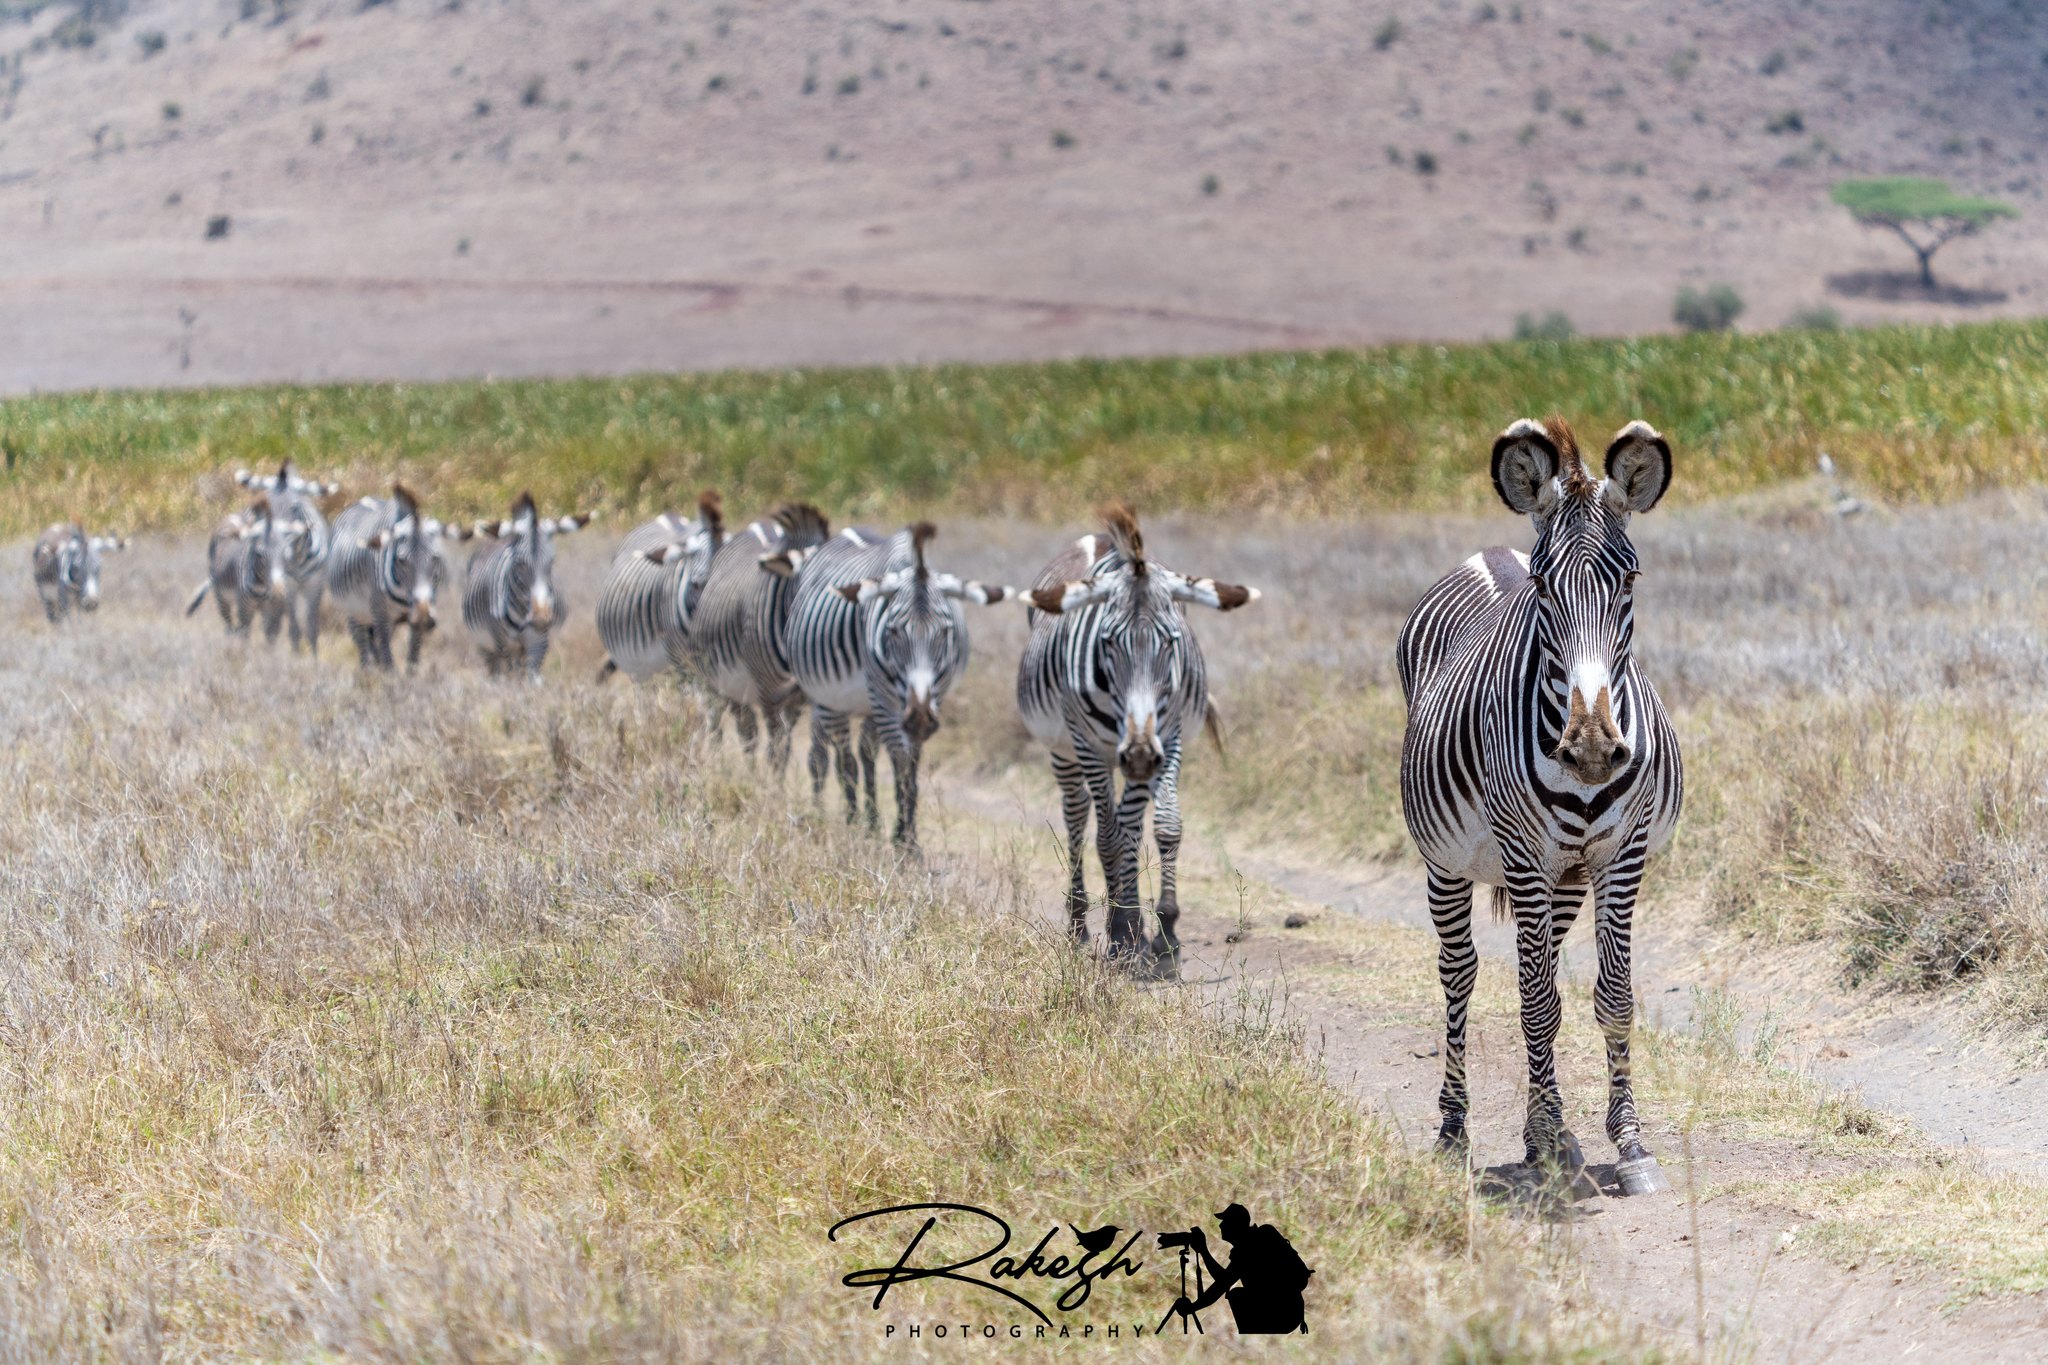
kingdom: Animalia
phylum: Chordata
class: Mammalia
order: Perissodactyla
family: Equidae
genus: Equus
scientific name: Equus grevyi
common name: Grevy's zebra
